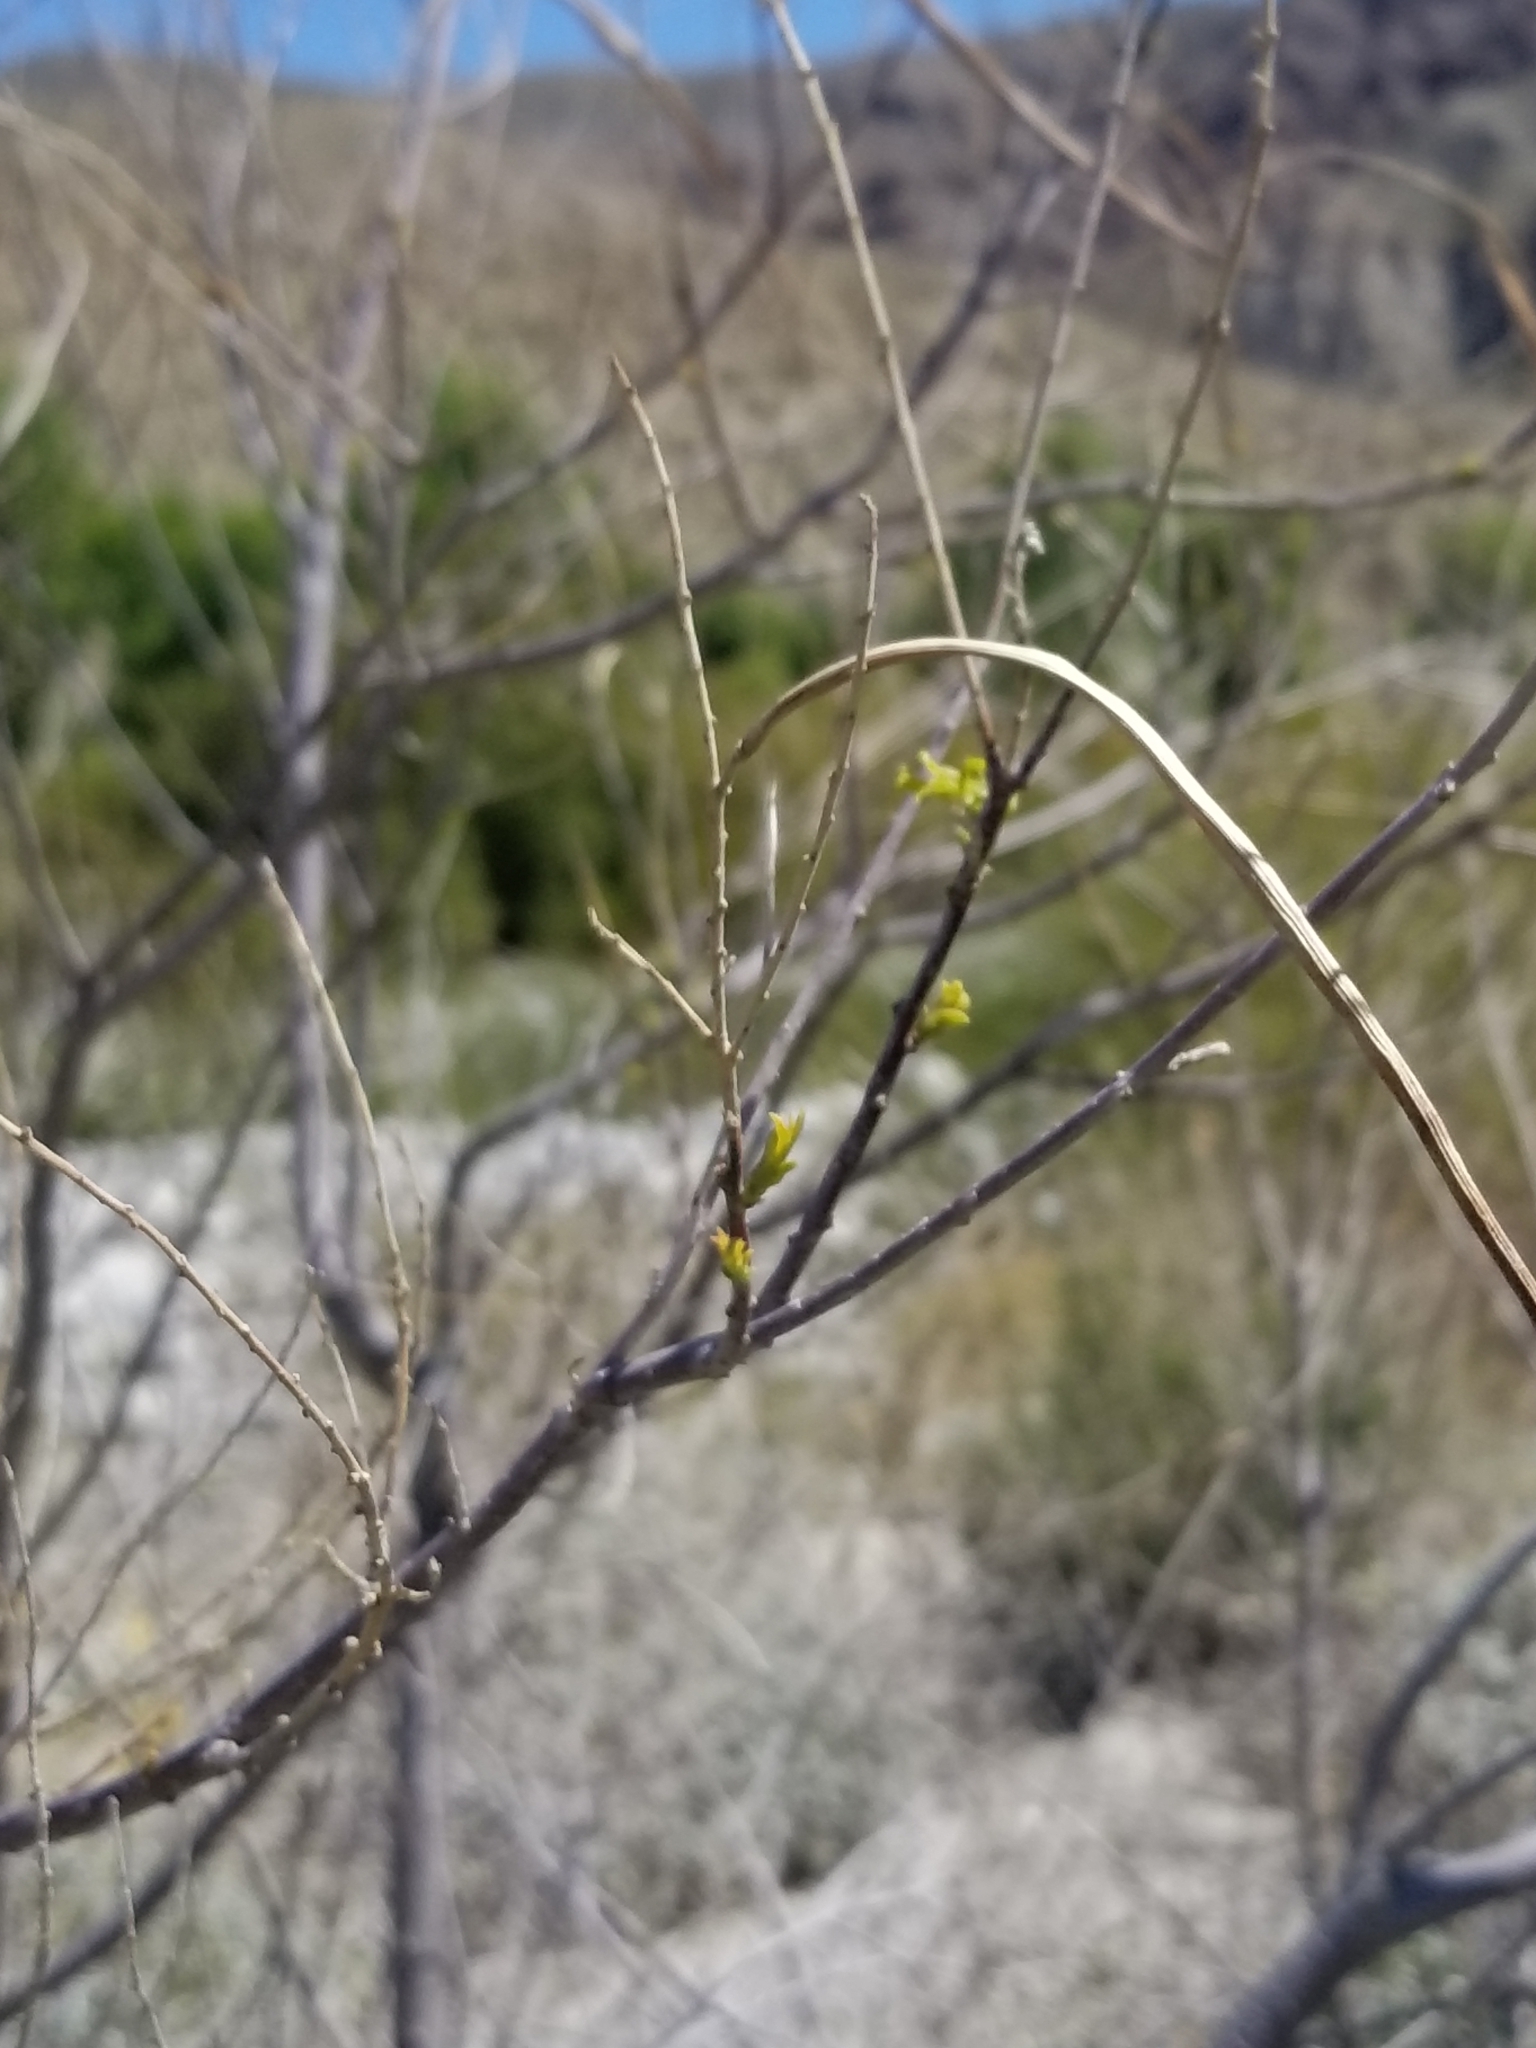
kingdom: Plantae
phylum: Tracheophyta
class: Magnoliopsida
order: Lamiales
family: Bignoniaceae
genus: Chilopsis
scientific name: Chilopsis linearis
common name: Desert-willow
